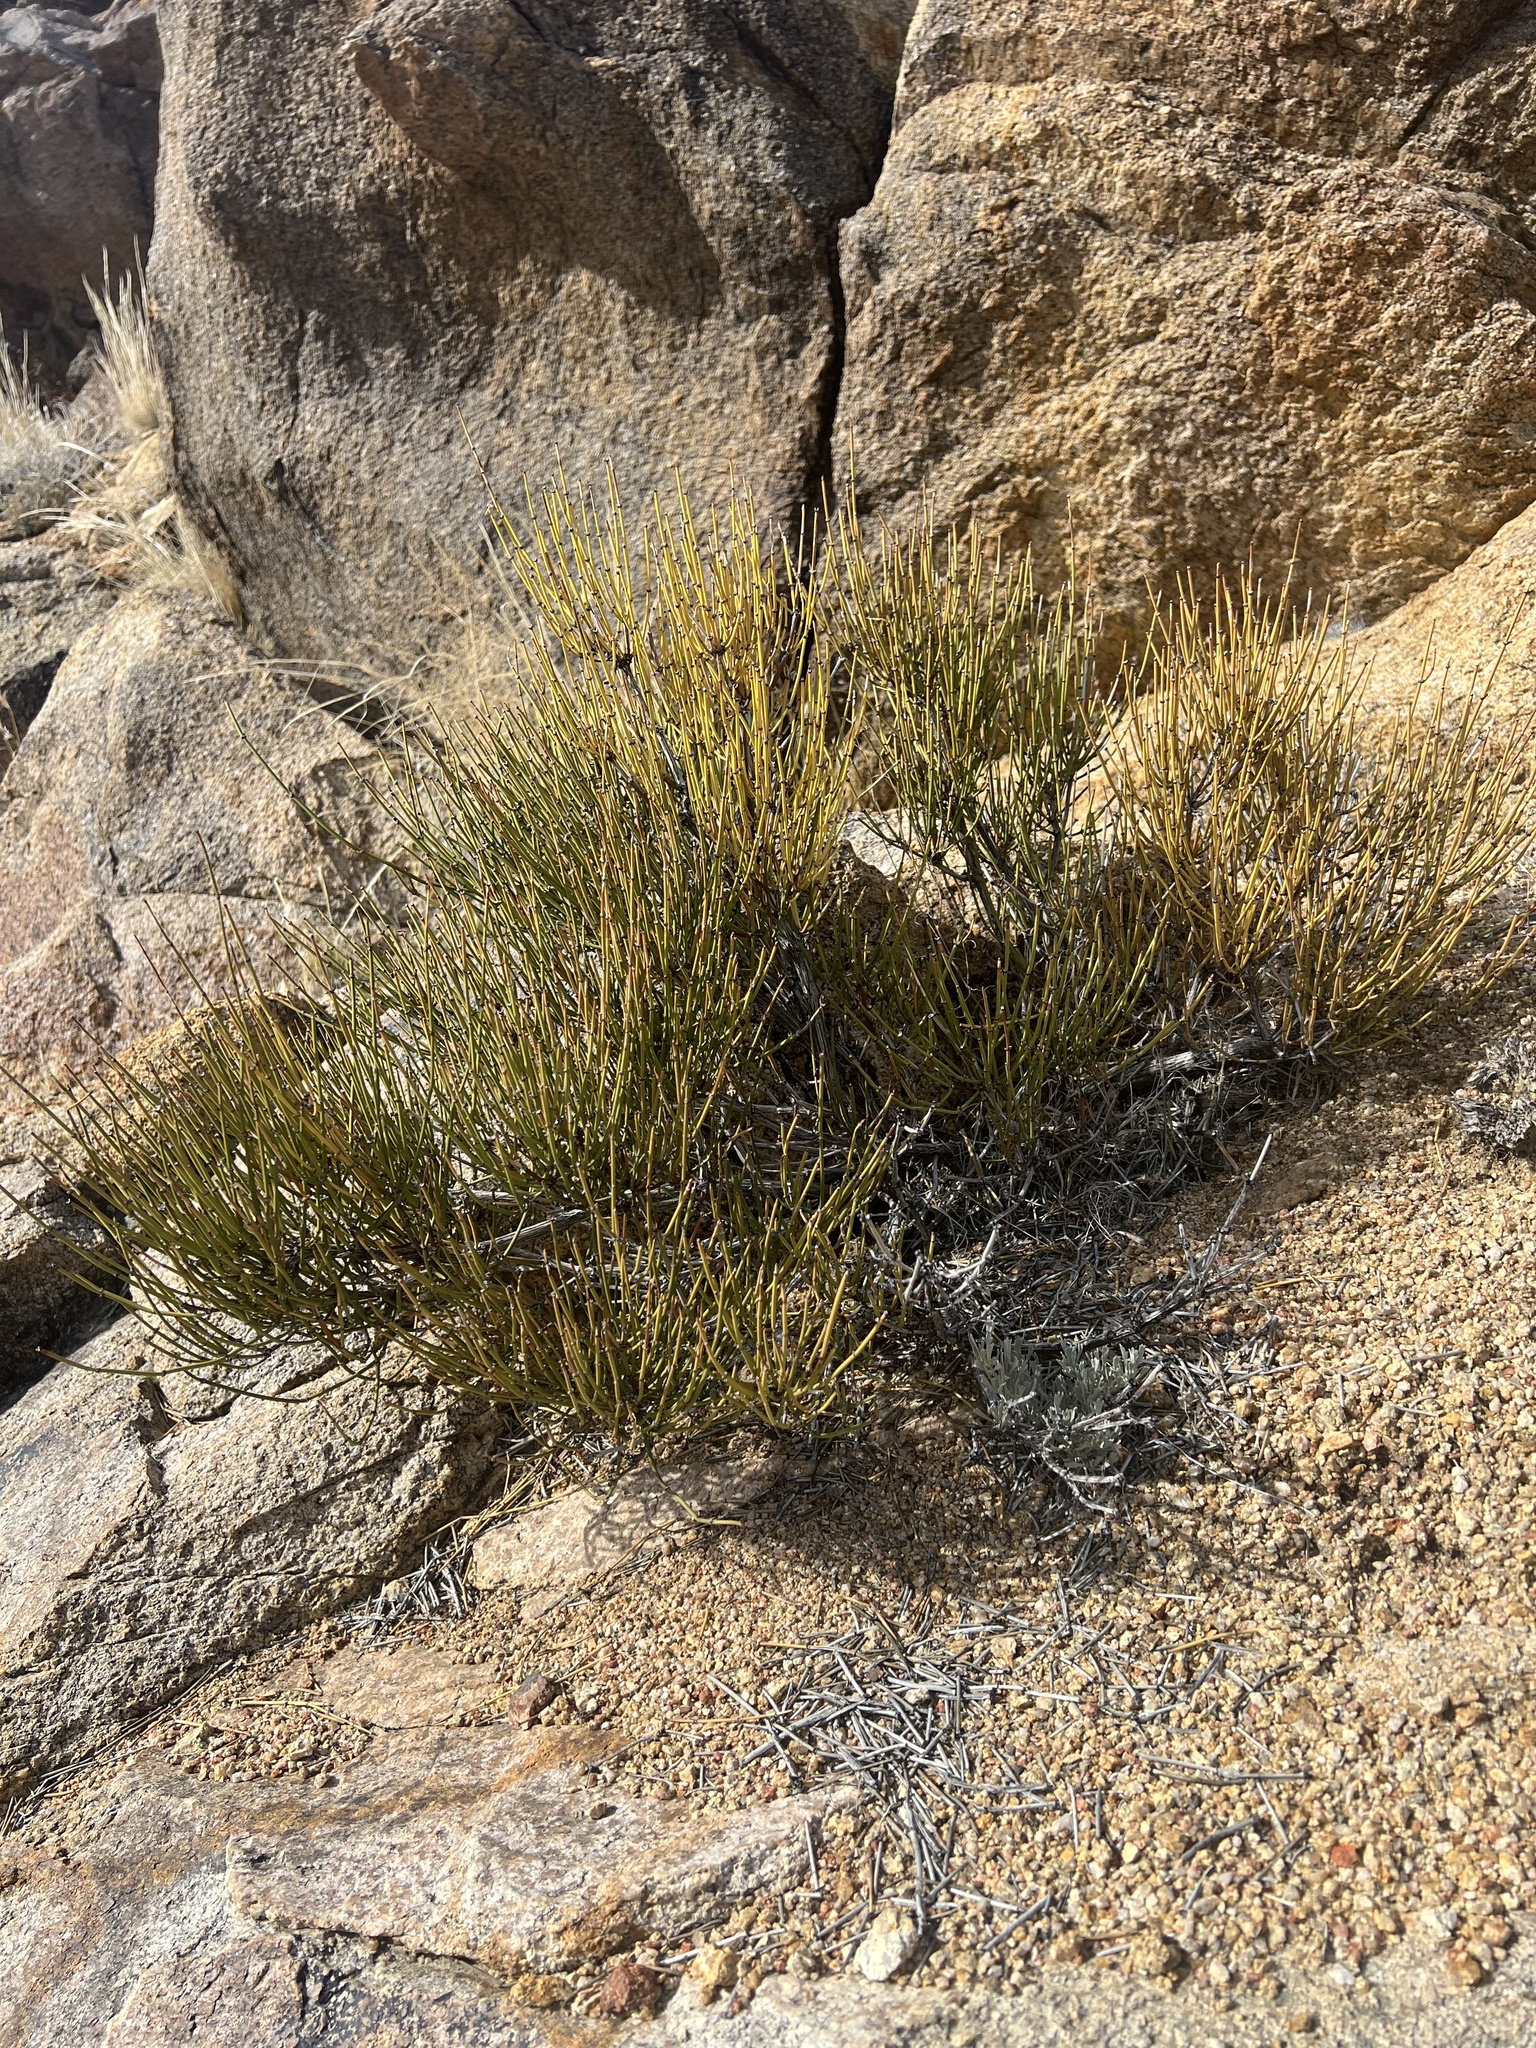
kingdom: Plantae
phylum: Tracheophyta
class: Gnetopsida
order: Ephedrales
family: Ephedraceae
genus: Ephedra
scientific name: Ephedra viridis
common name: Green ephedra
